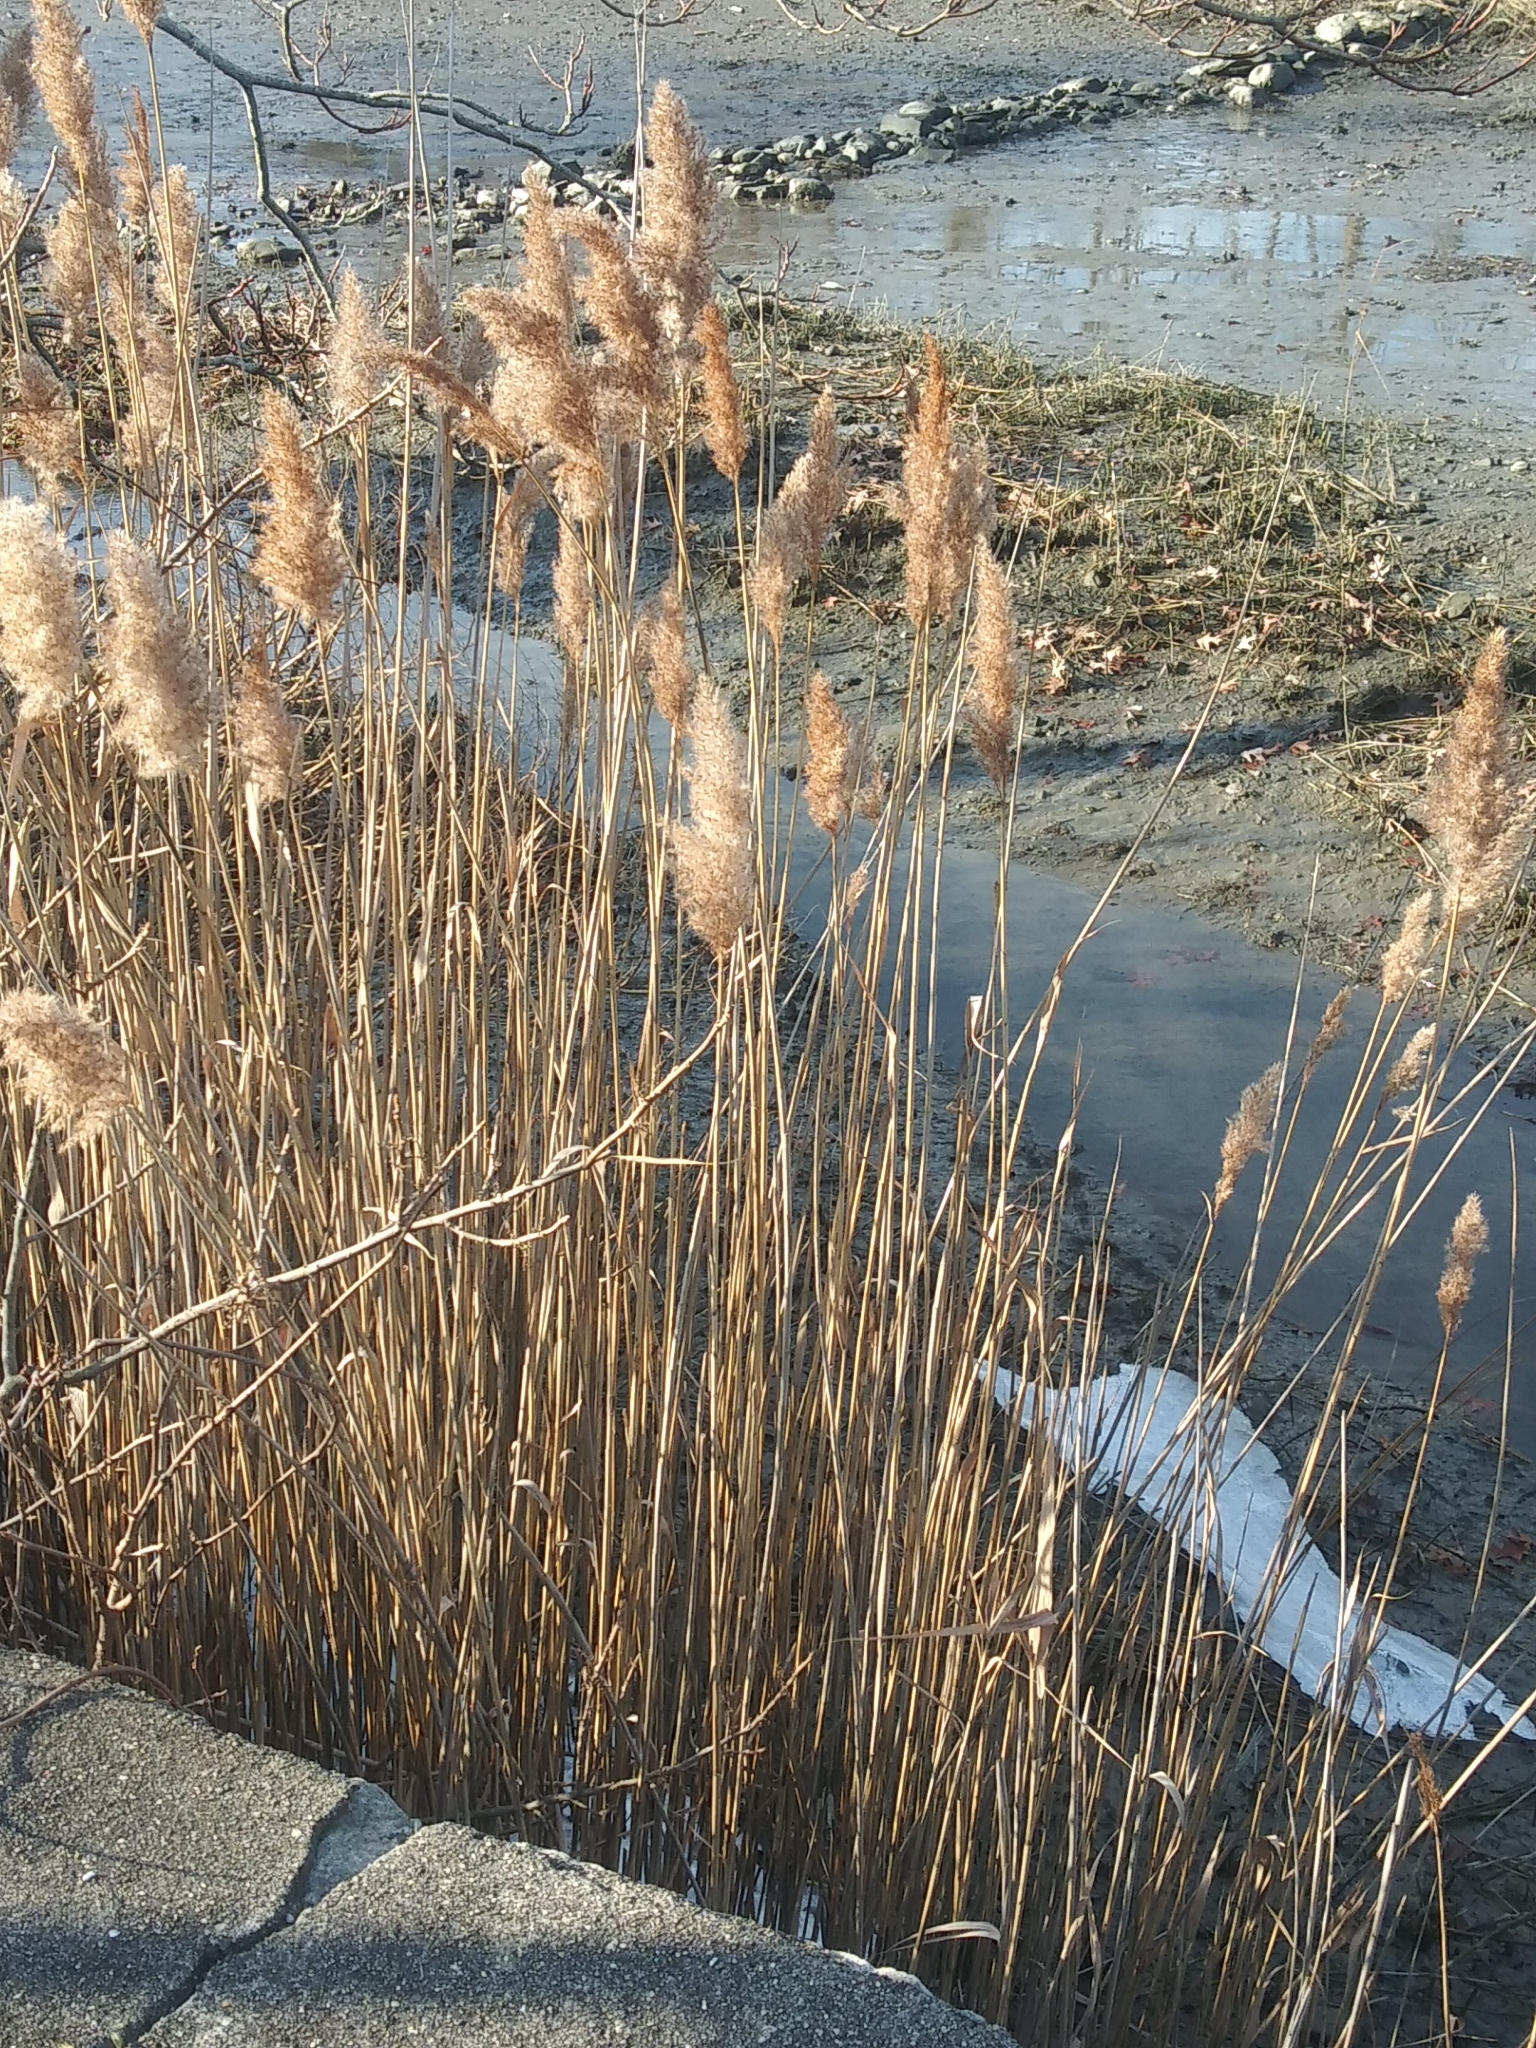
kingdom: Plantae
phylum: Tracheophyta
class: Liliopsida
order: Poales
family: Poaceae
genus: Phragmites
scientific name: Phragmites australis
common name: Common reed
